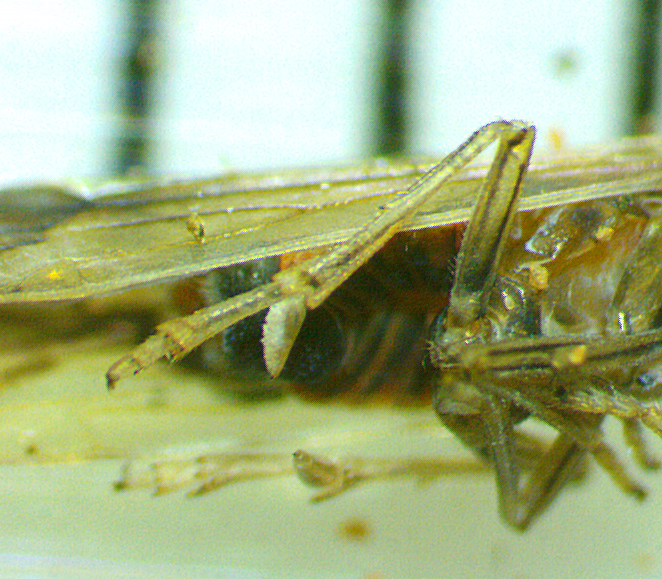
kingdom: Animalia
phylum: Arthropoda
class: Insecta
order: Hemiptera
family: Delphacidae
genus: Stenocranus
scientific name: Stenocranus lautus
